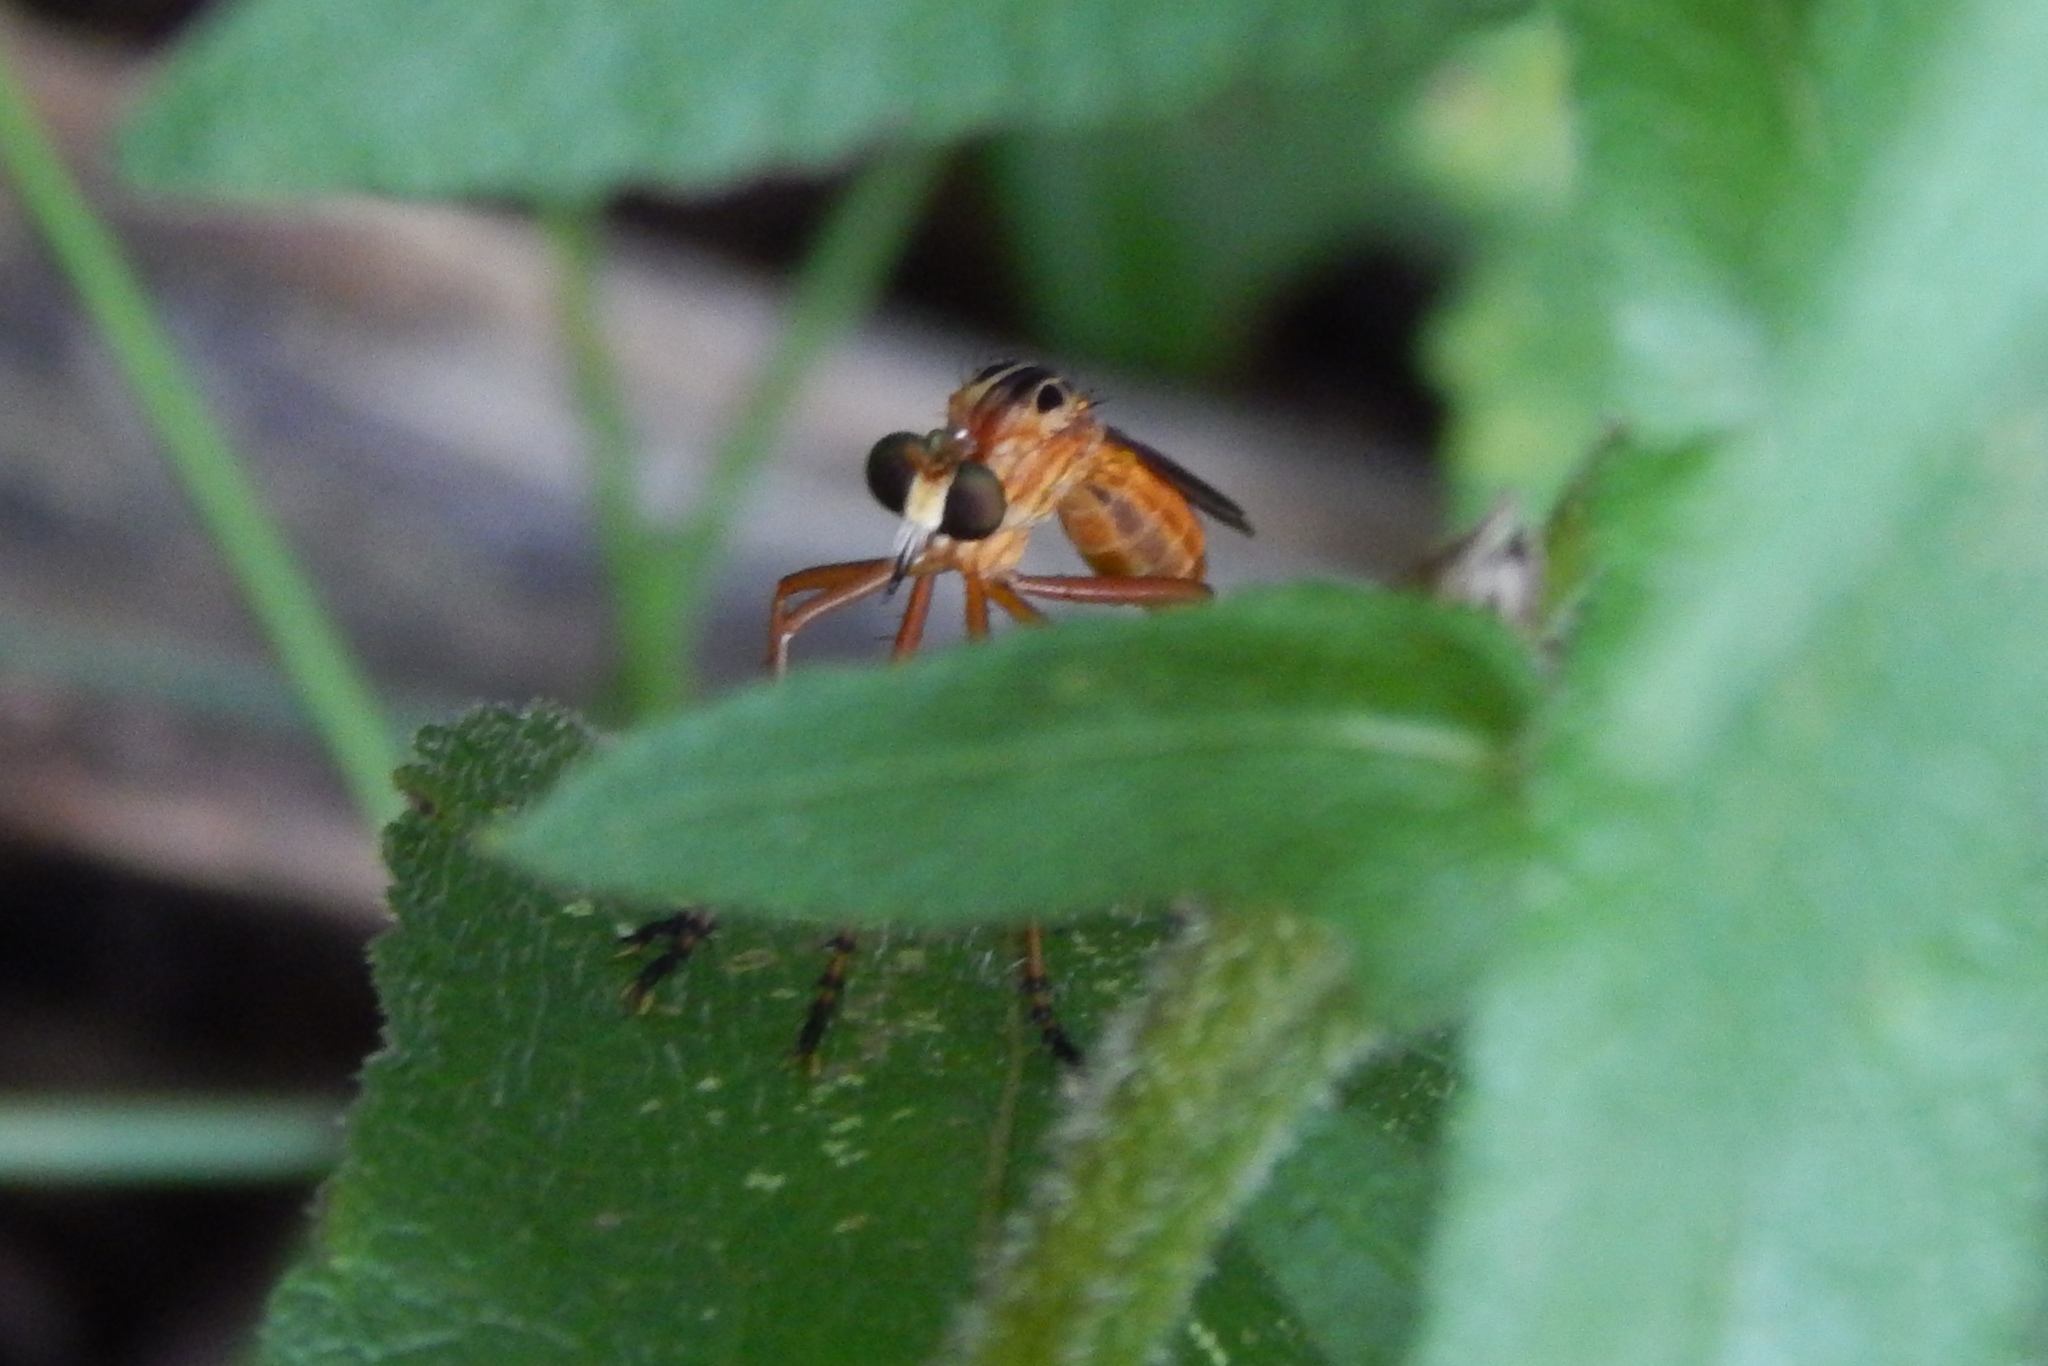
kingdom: Animalia
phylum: Arthropoda
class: Insecta
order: Diptera
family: Asilidae
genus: Diogmites
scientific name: Diogmites neoternatus
